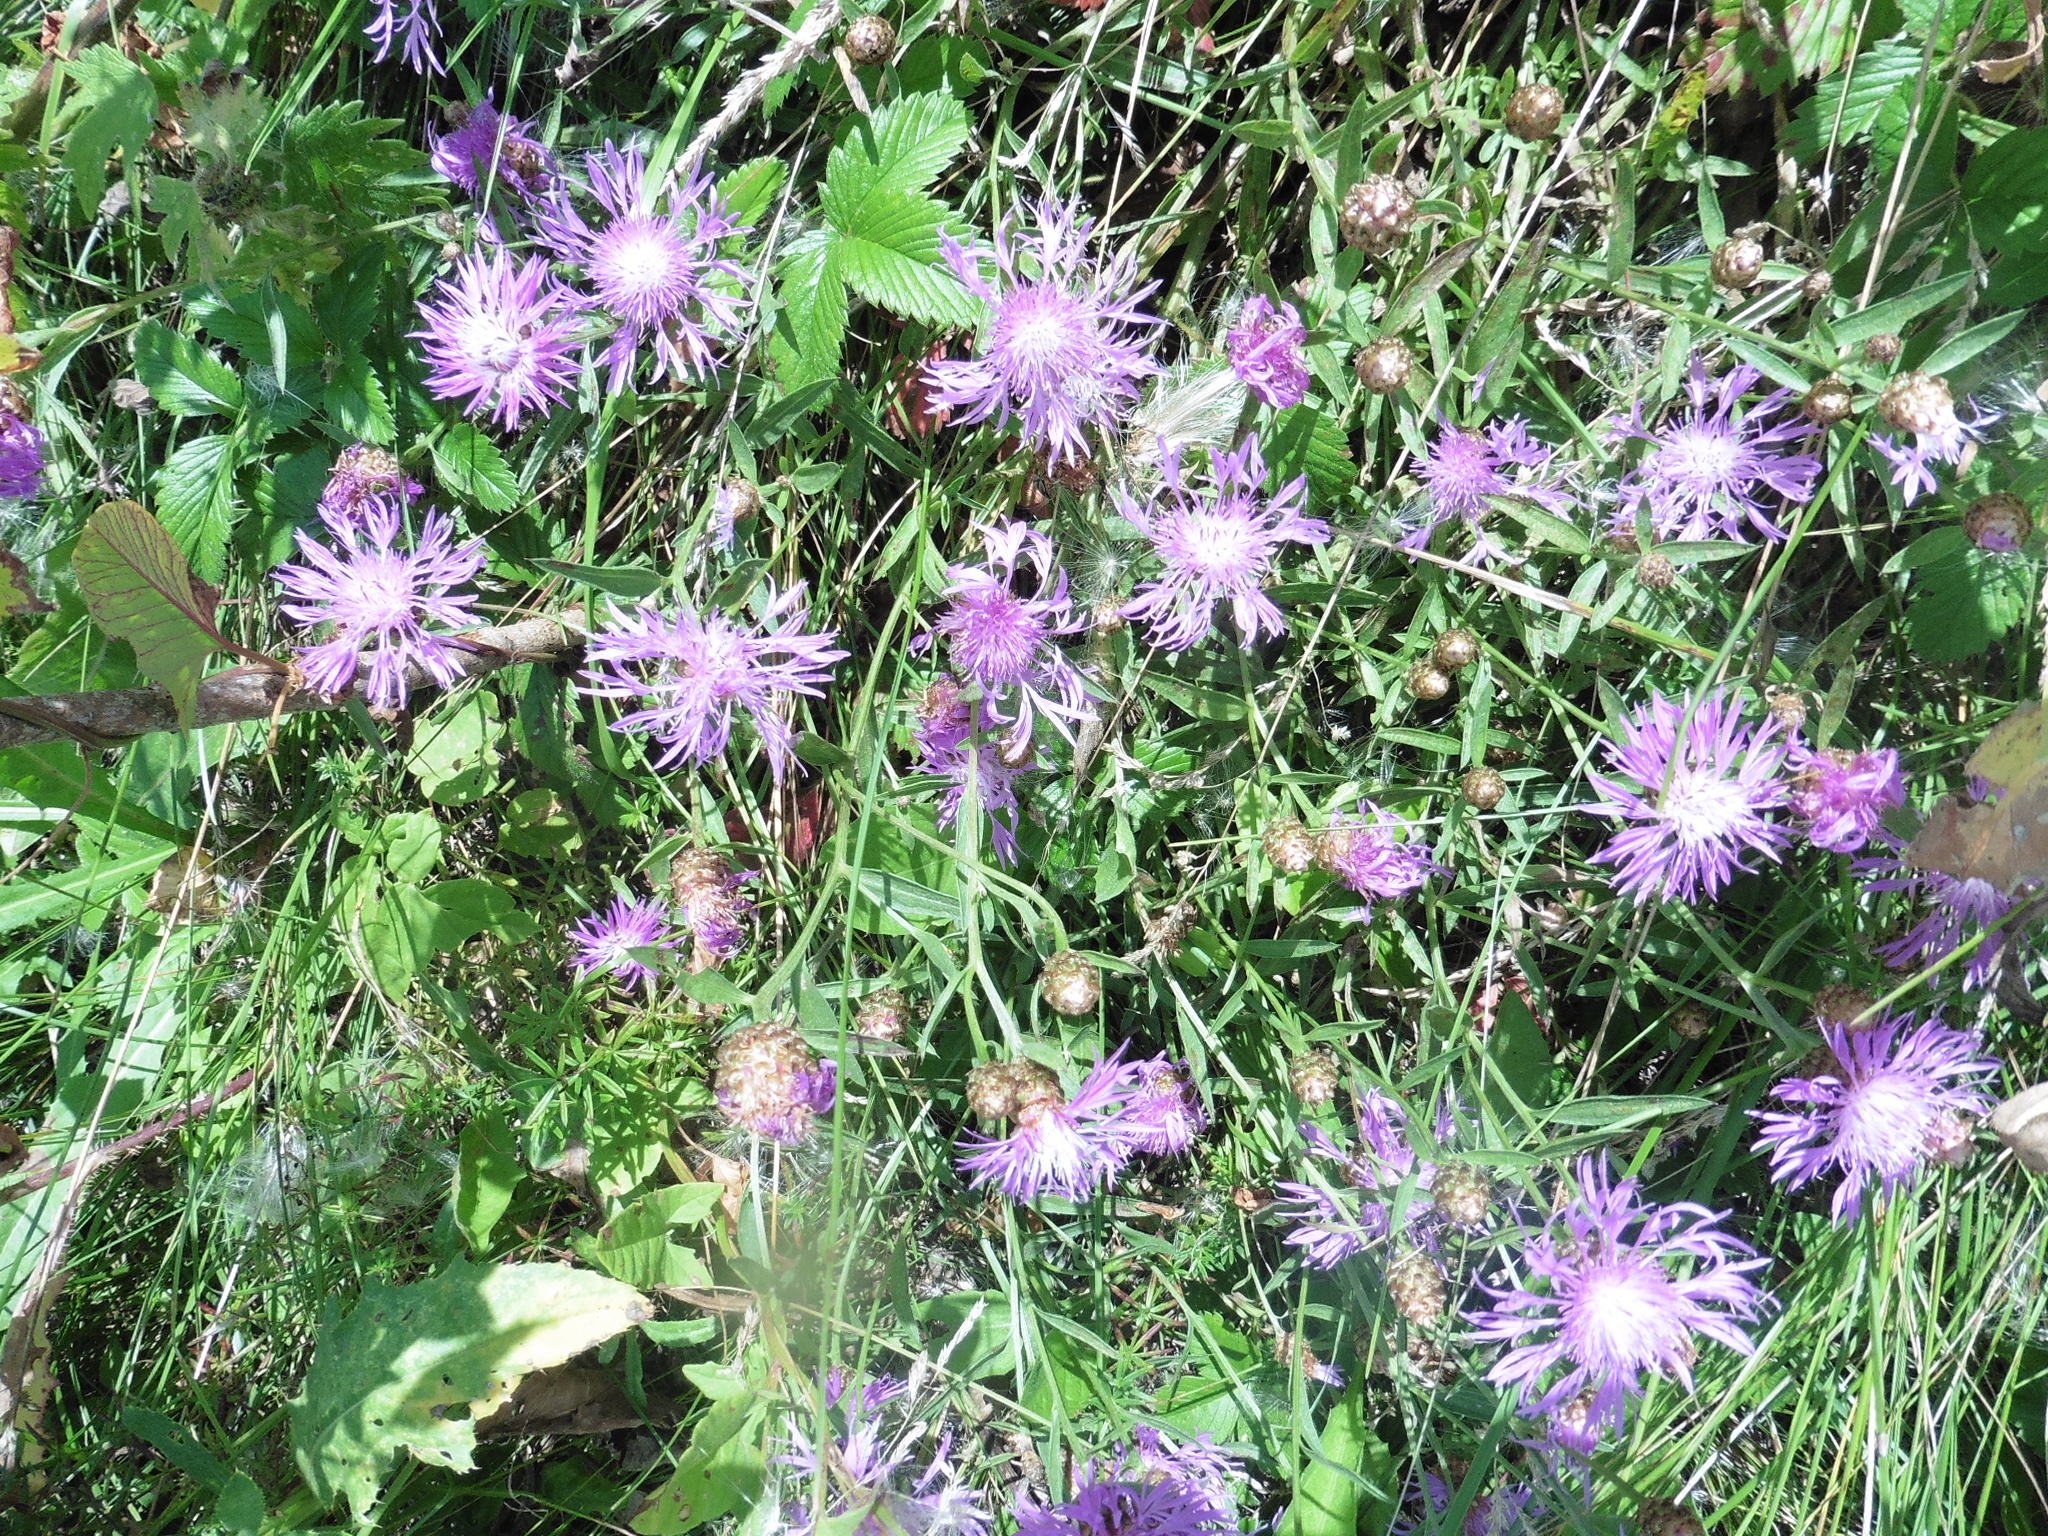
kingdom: Plantae
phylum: Tracheophyta
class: Magnoliopsida
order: Asterales
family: Asteraceae
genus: Centaurea
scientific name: Centaurea jacea
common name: Brown knapweed
